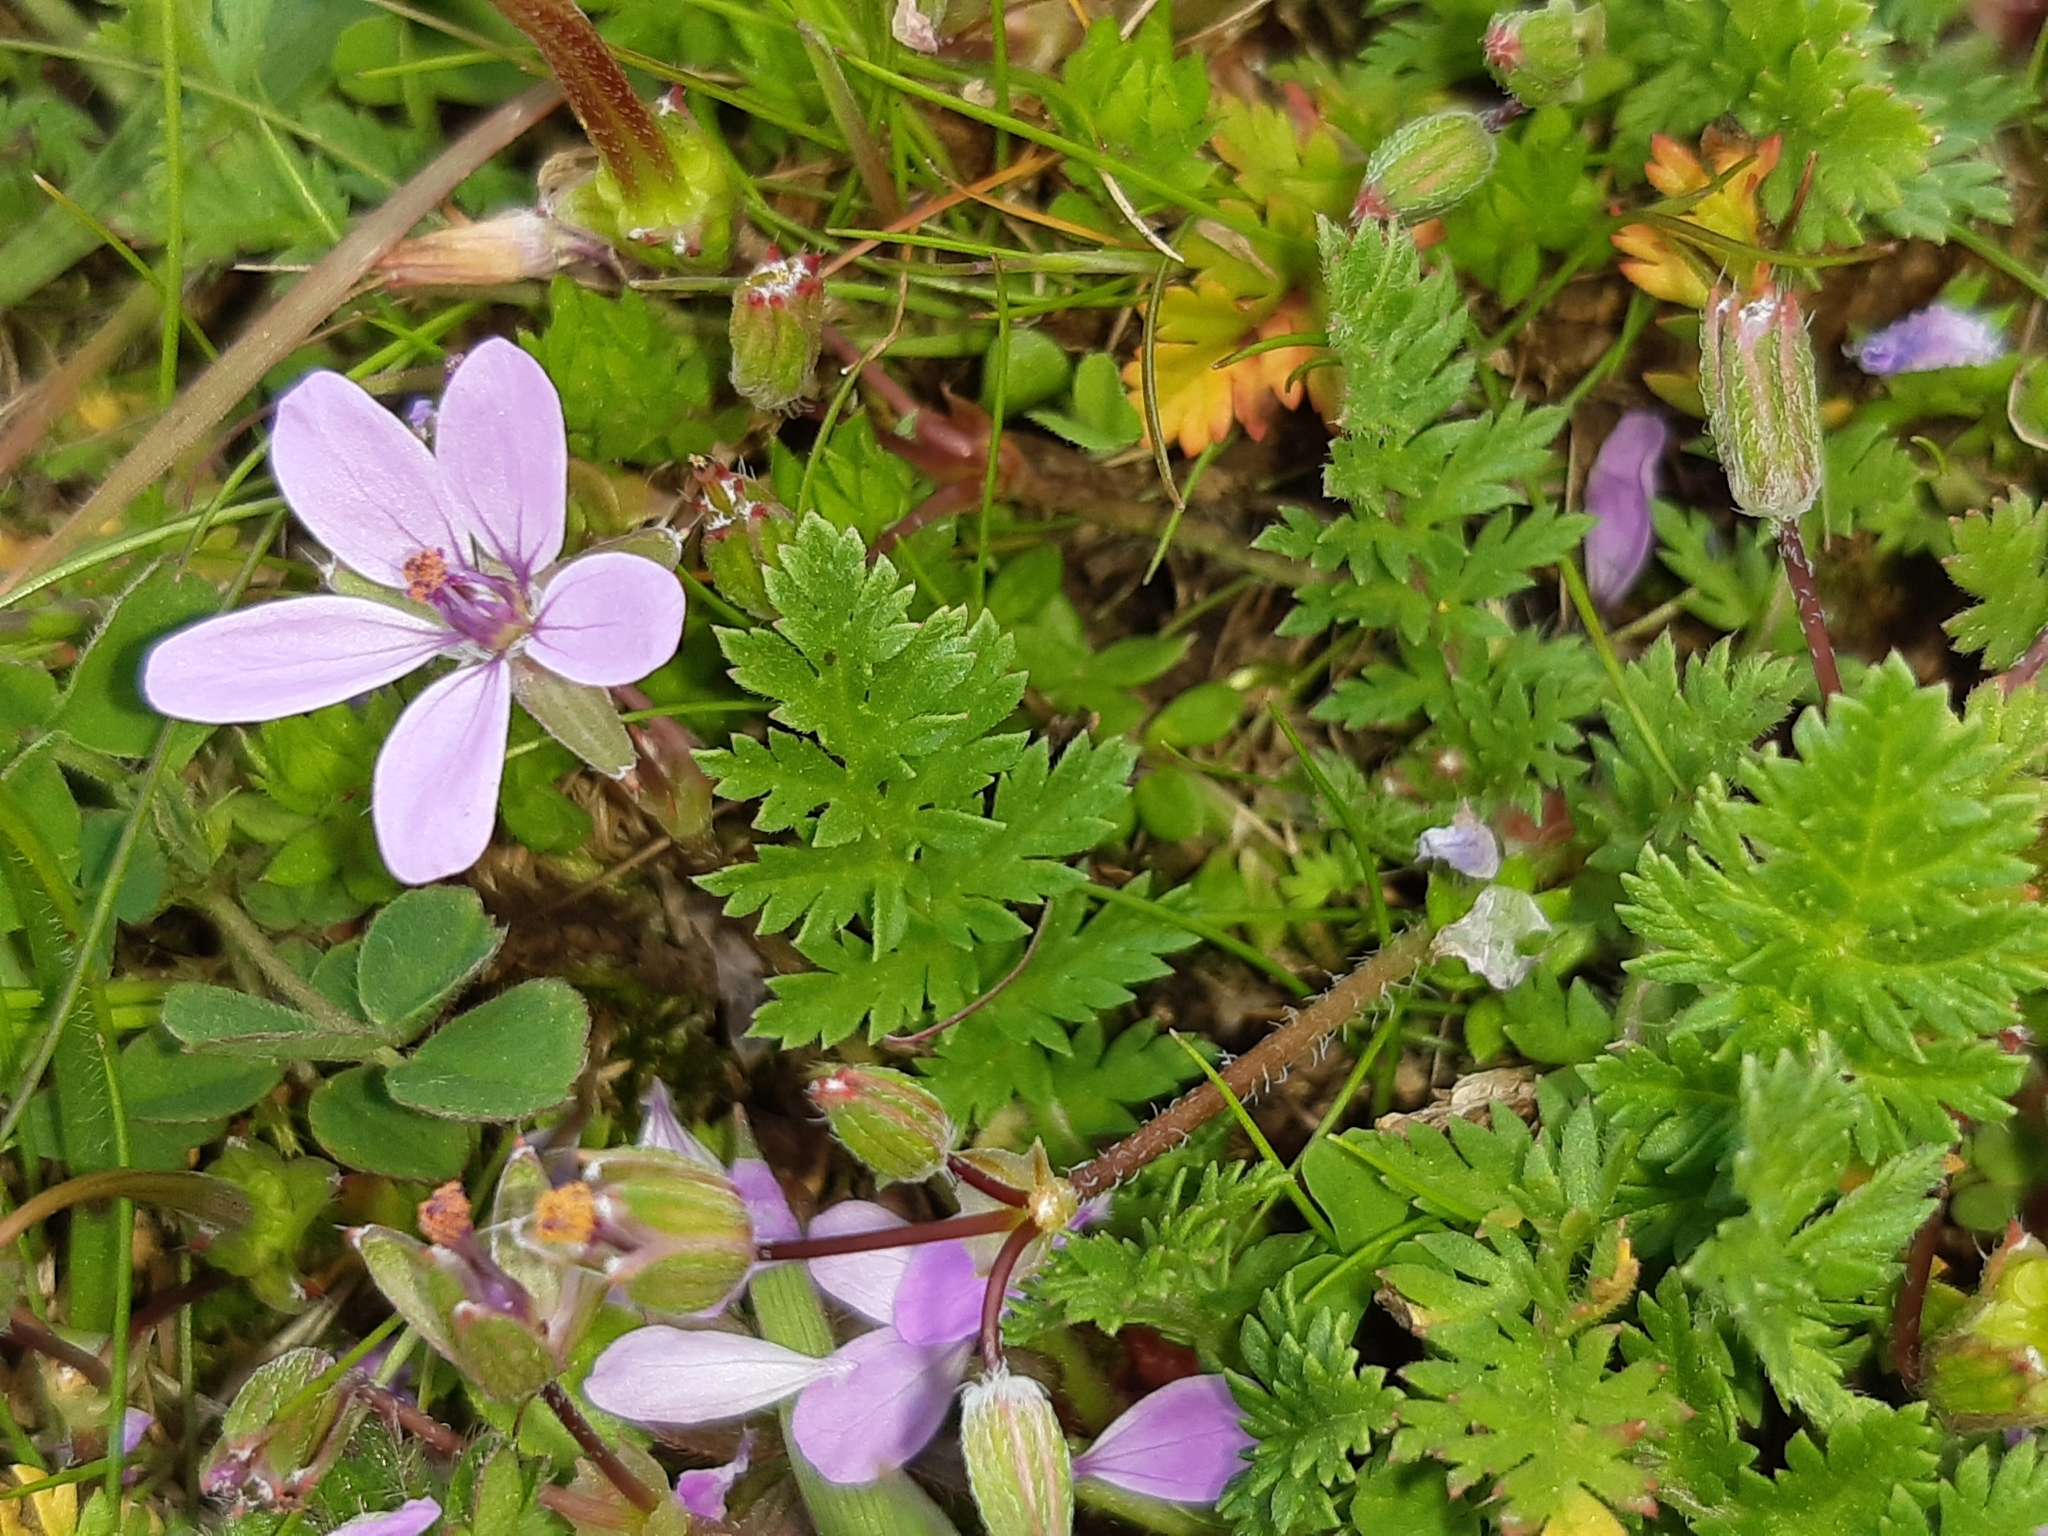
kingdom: Plantae
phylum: Tracheophyta
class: Magnoliopsida
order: Geraniales
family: Geraniaceae
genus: Erodium
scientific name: Erodium cicutarium
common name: Common stork's-bill
